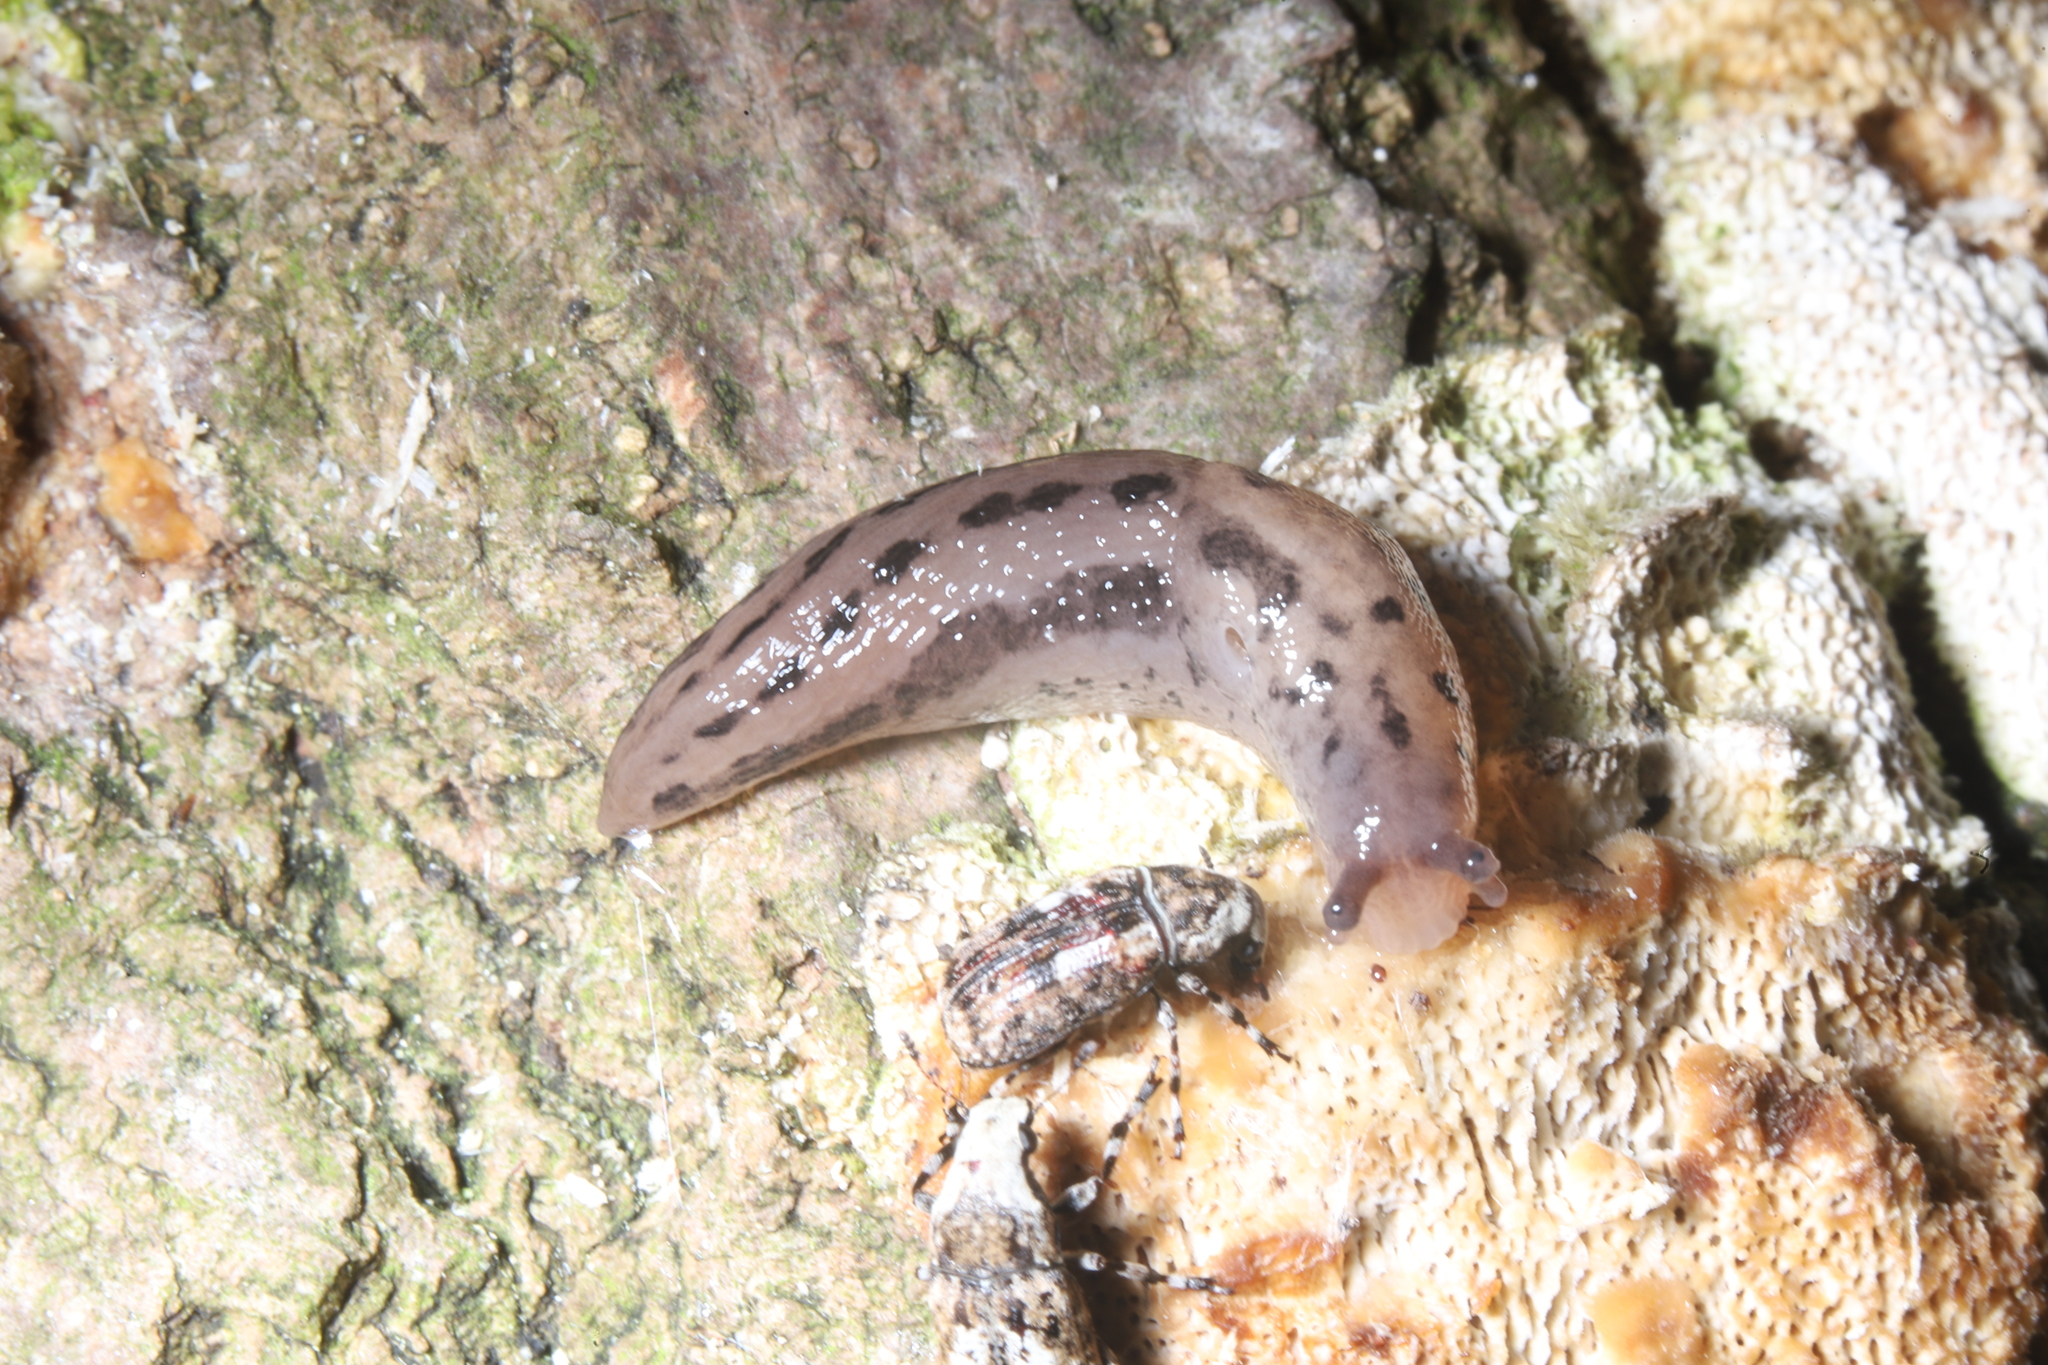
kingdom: Animalia
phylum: Mollusca
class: Gastropoda
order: Stylommatophora
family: Limacidae
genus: Limax
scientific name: Limax maximus
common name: Great grey slug
